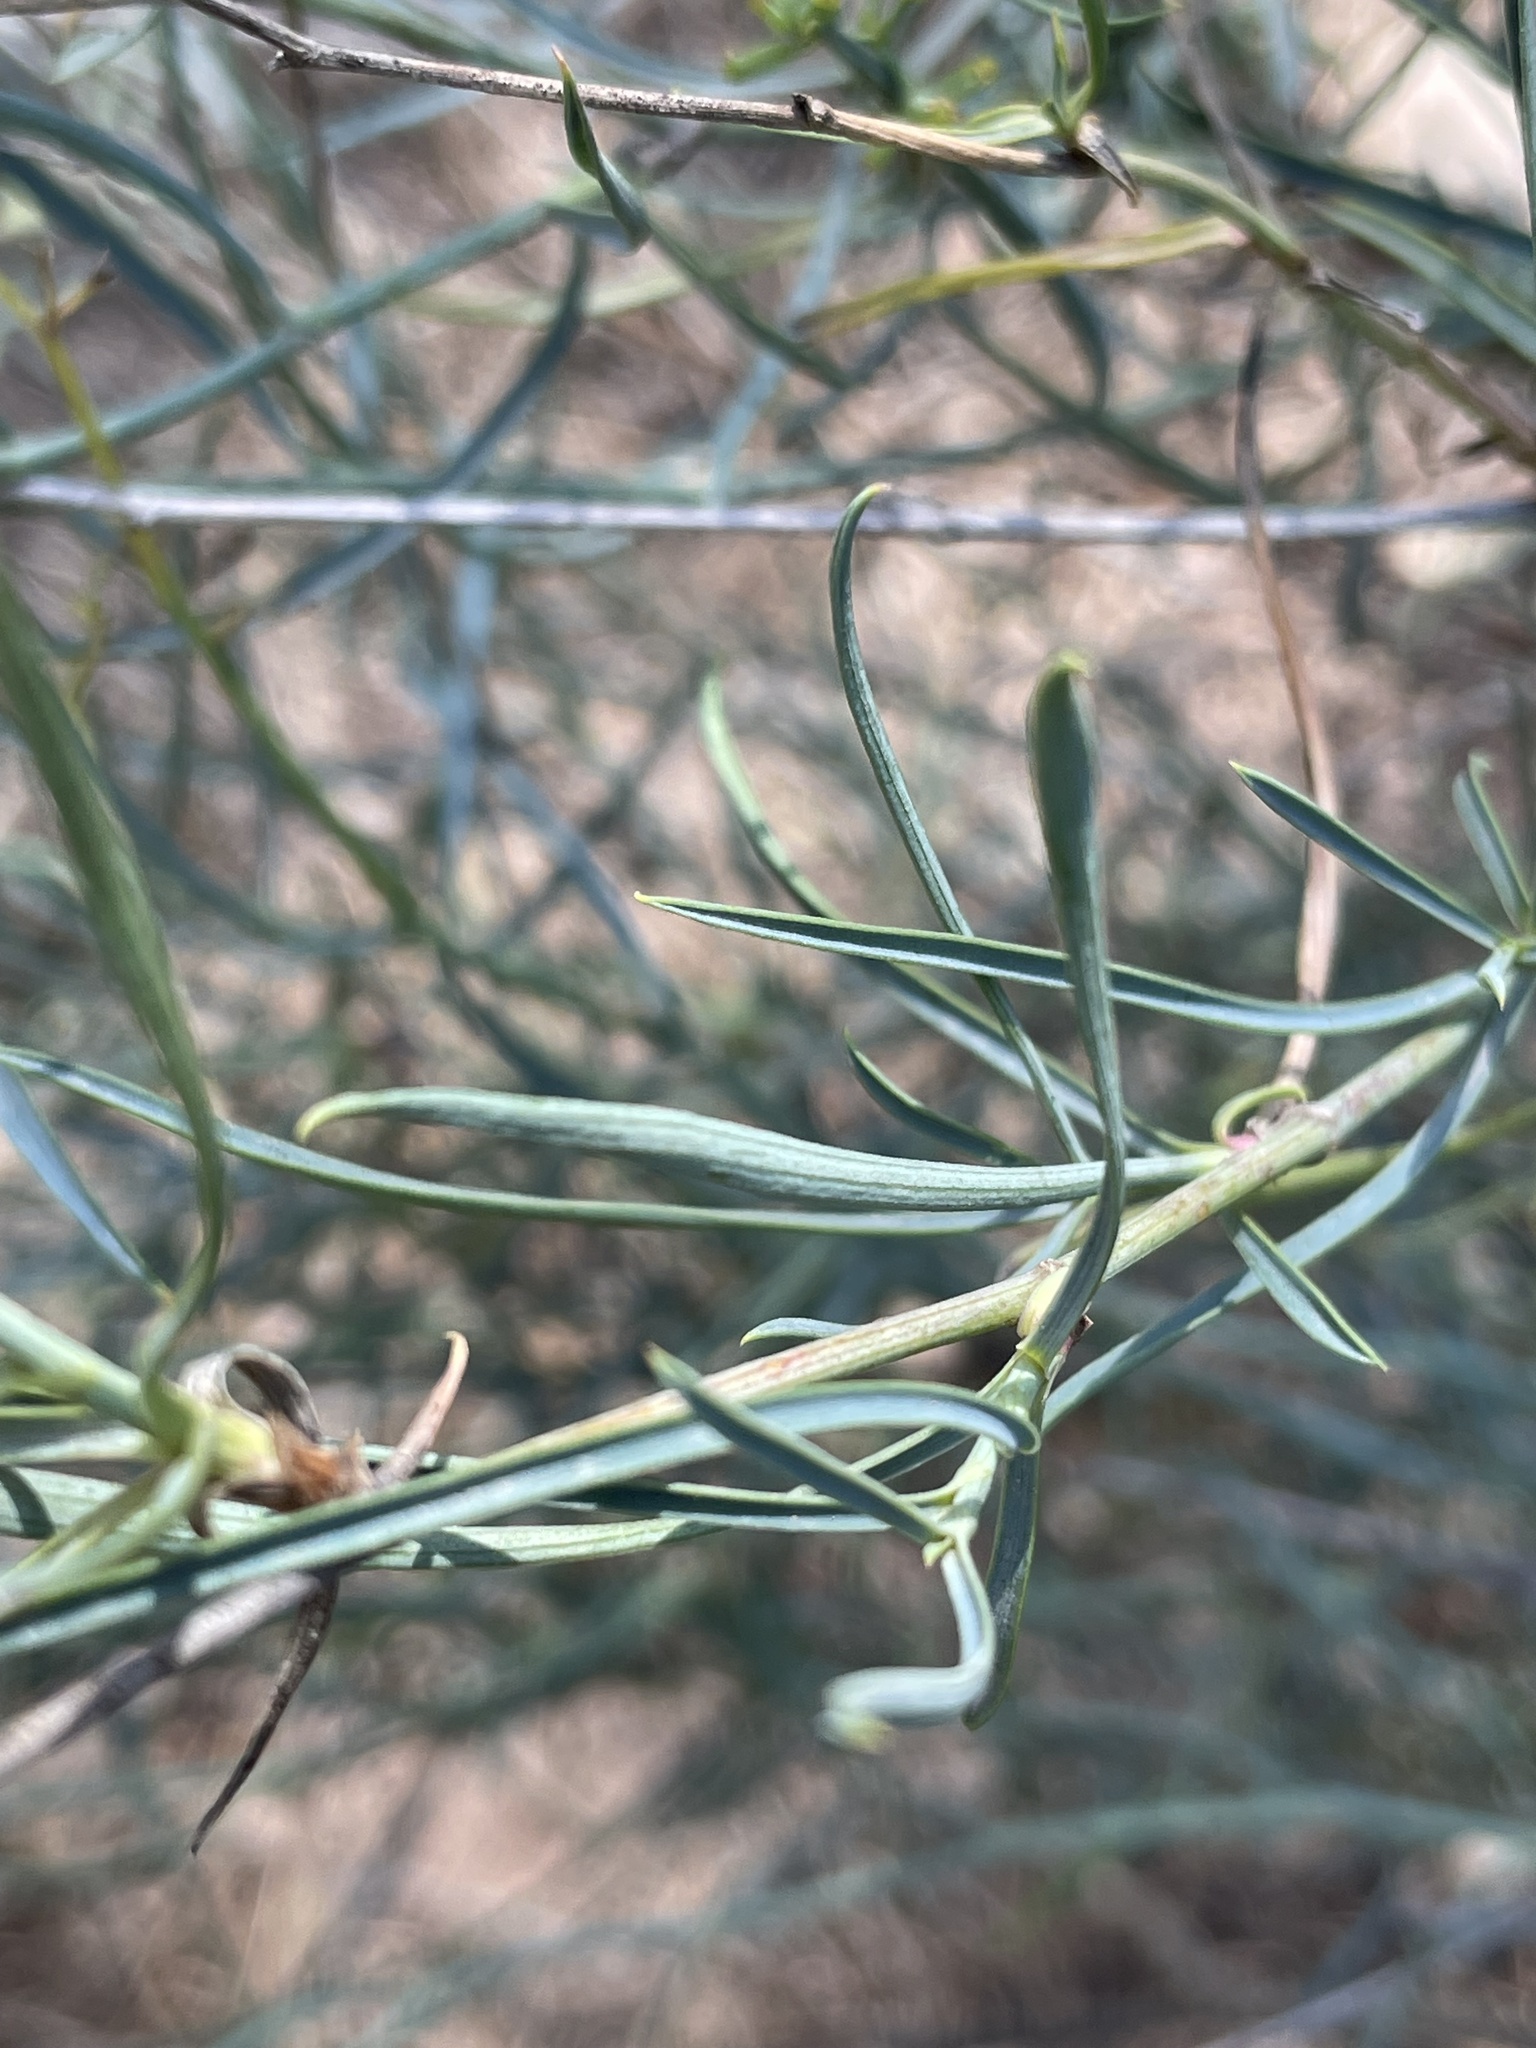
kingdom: Plantae
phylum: Tracheophyta
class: Magnoliopsida
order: Apiales
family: Apiaceae
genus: Bupleurum
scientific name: Bupleurum fruticescens
